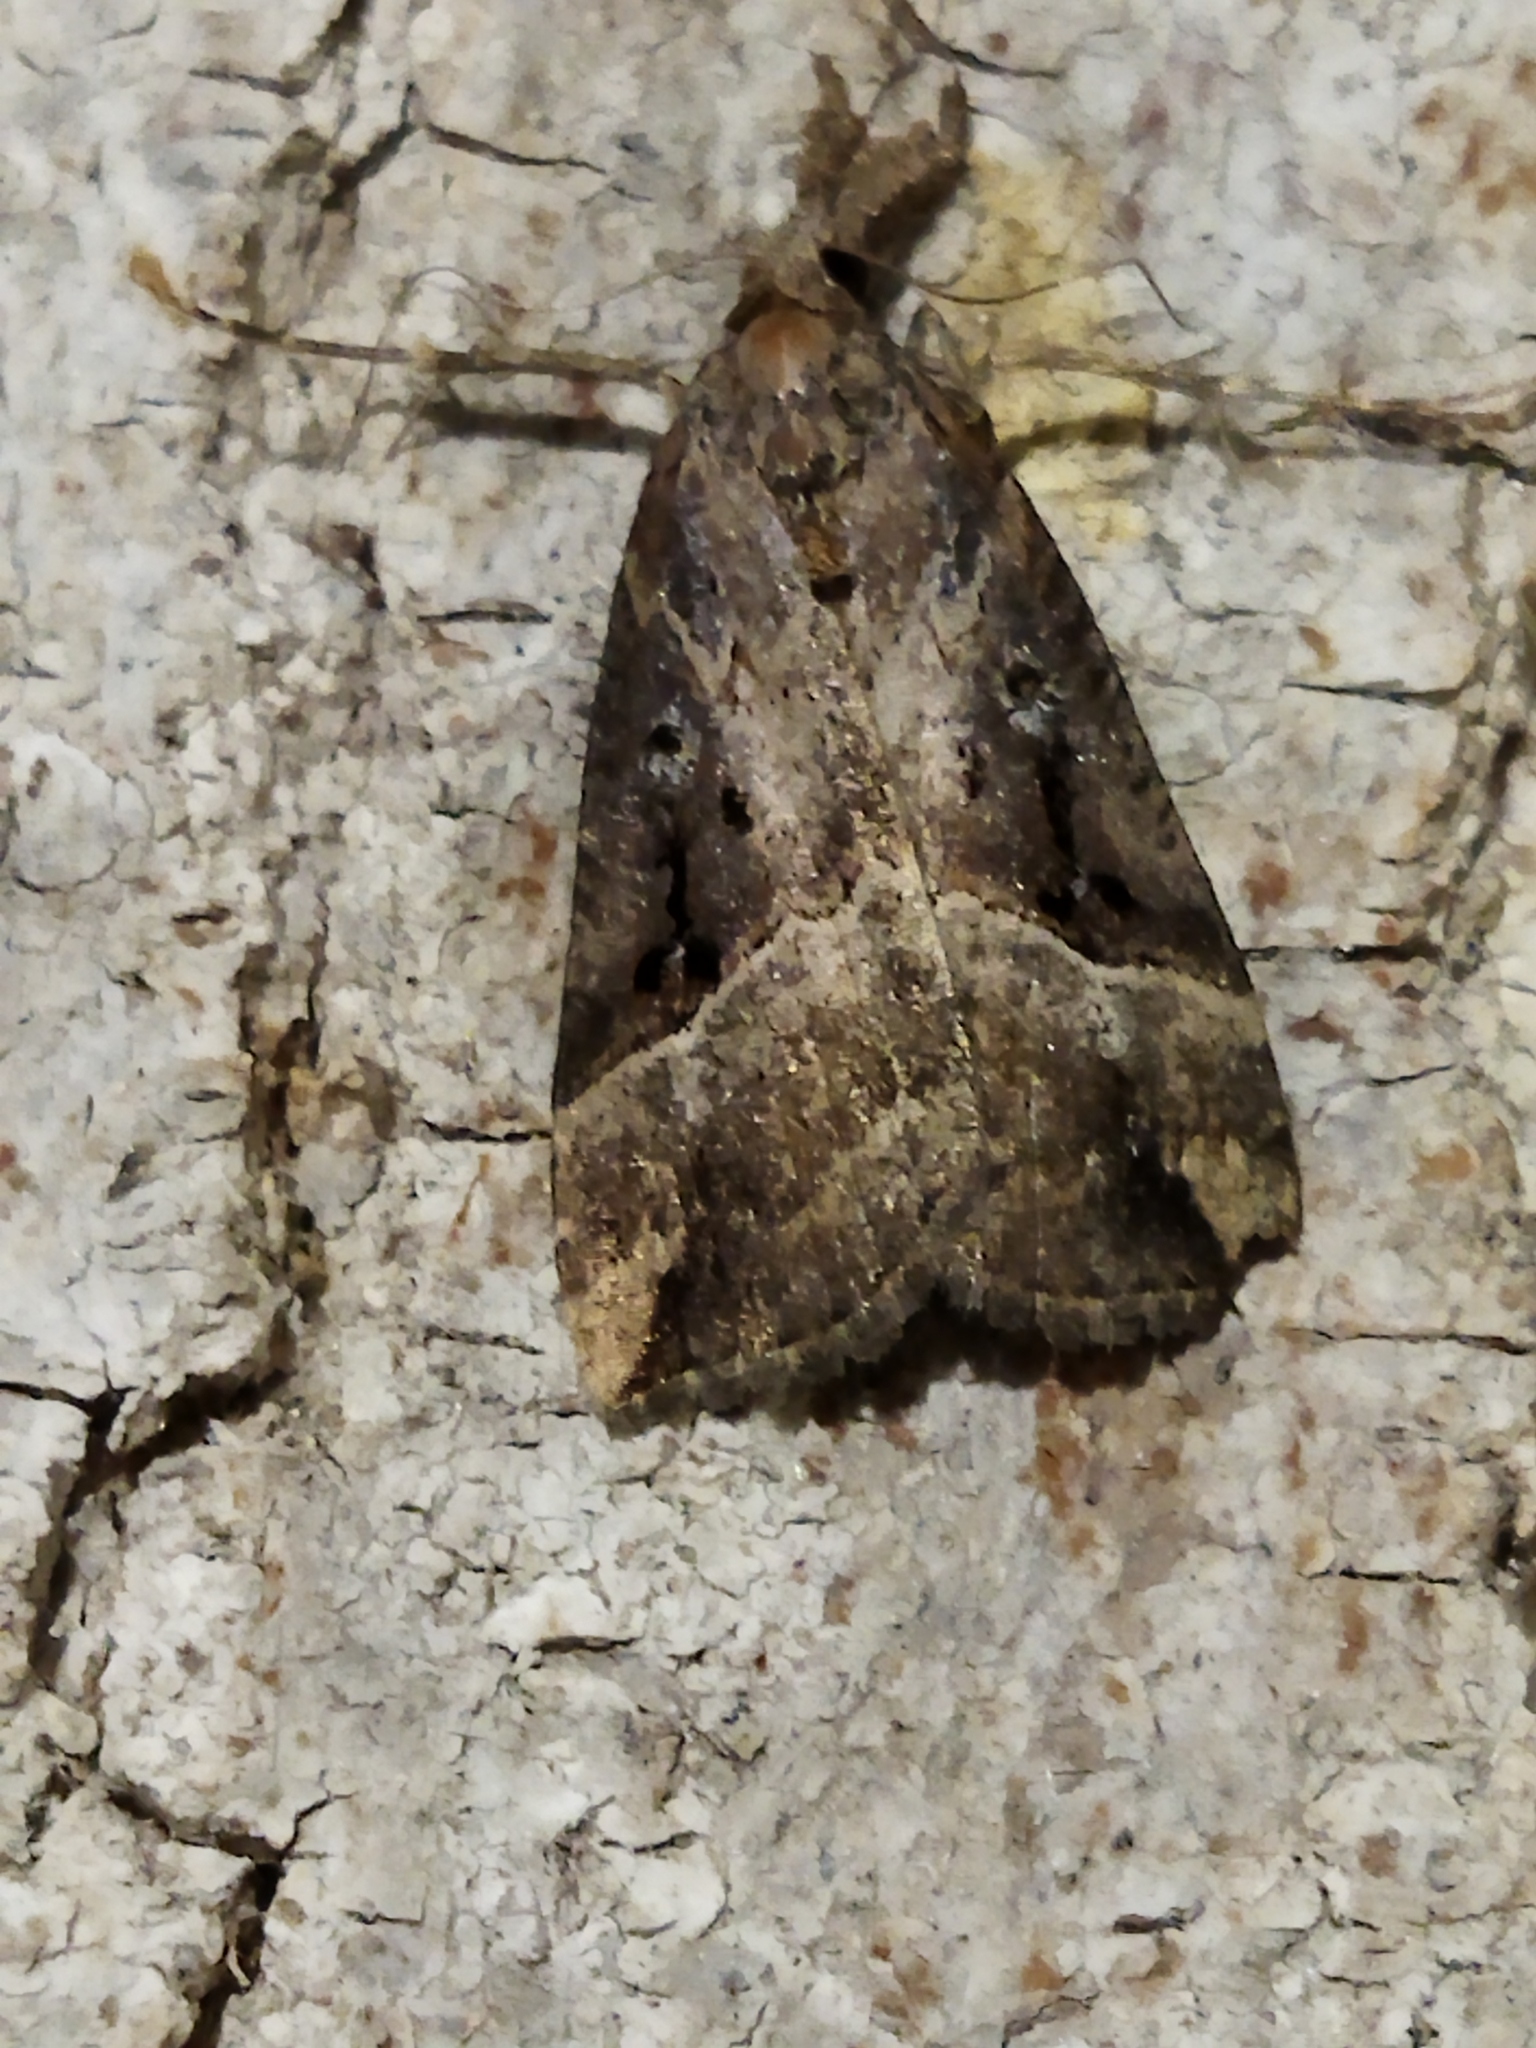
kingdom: Animalia
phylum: Arthropoda
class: Insecta
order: Lepidoptera
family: Erebidae
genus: Hypena
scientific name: Hypena rostralis
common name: Buttoned snout
